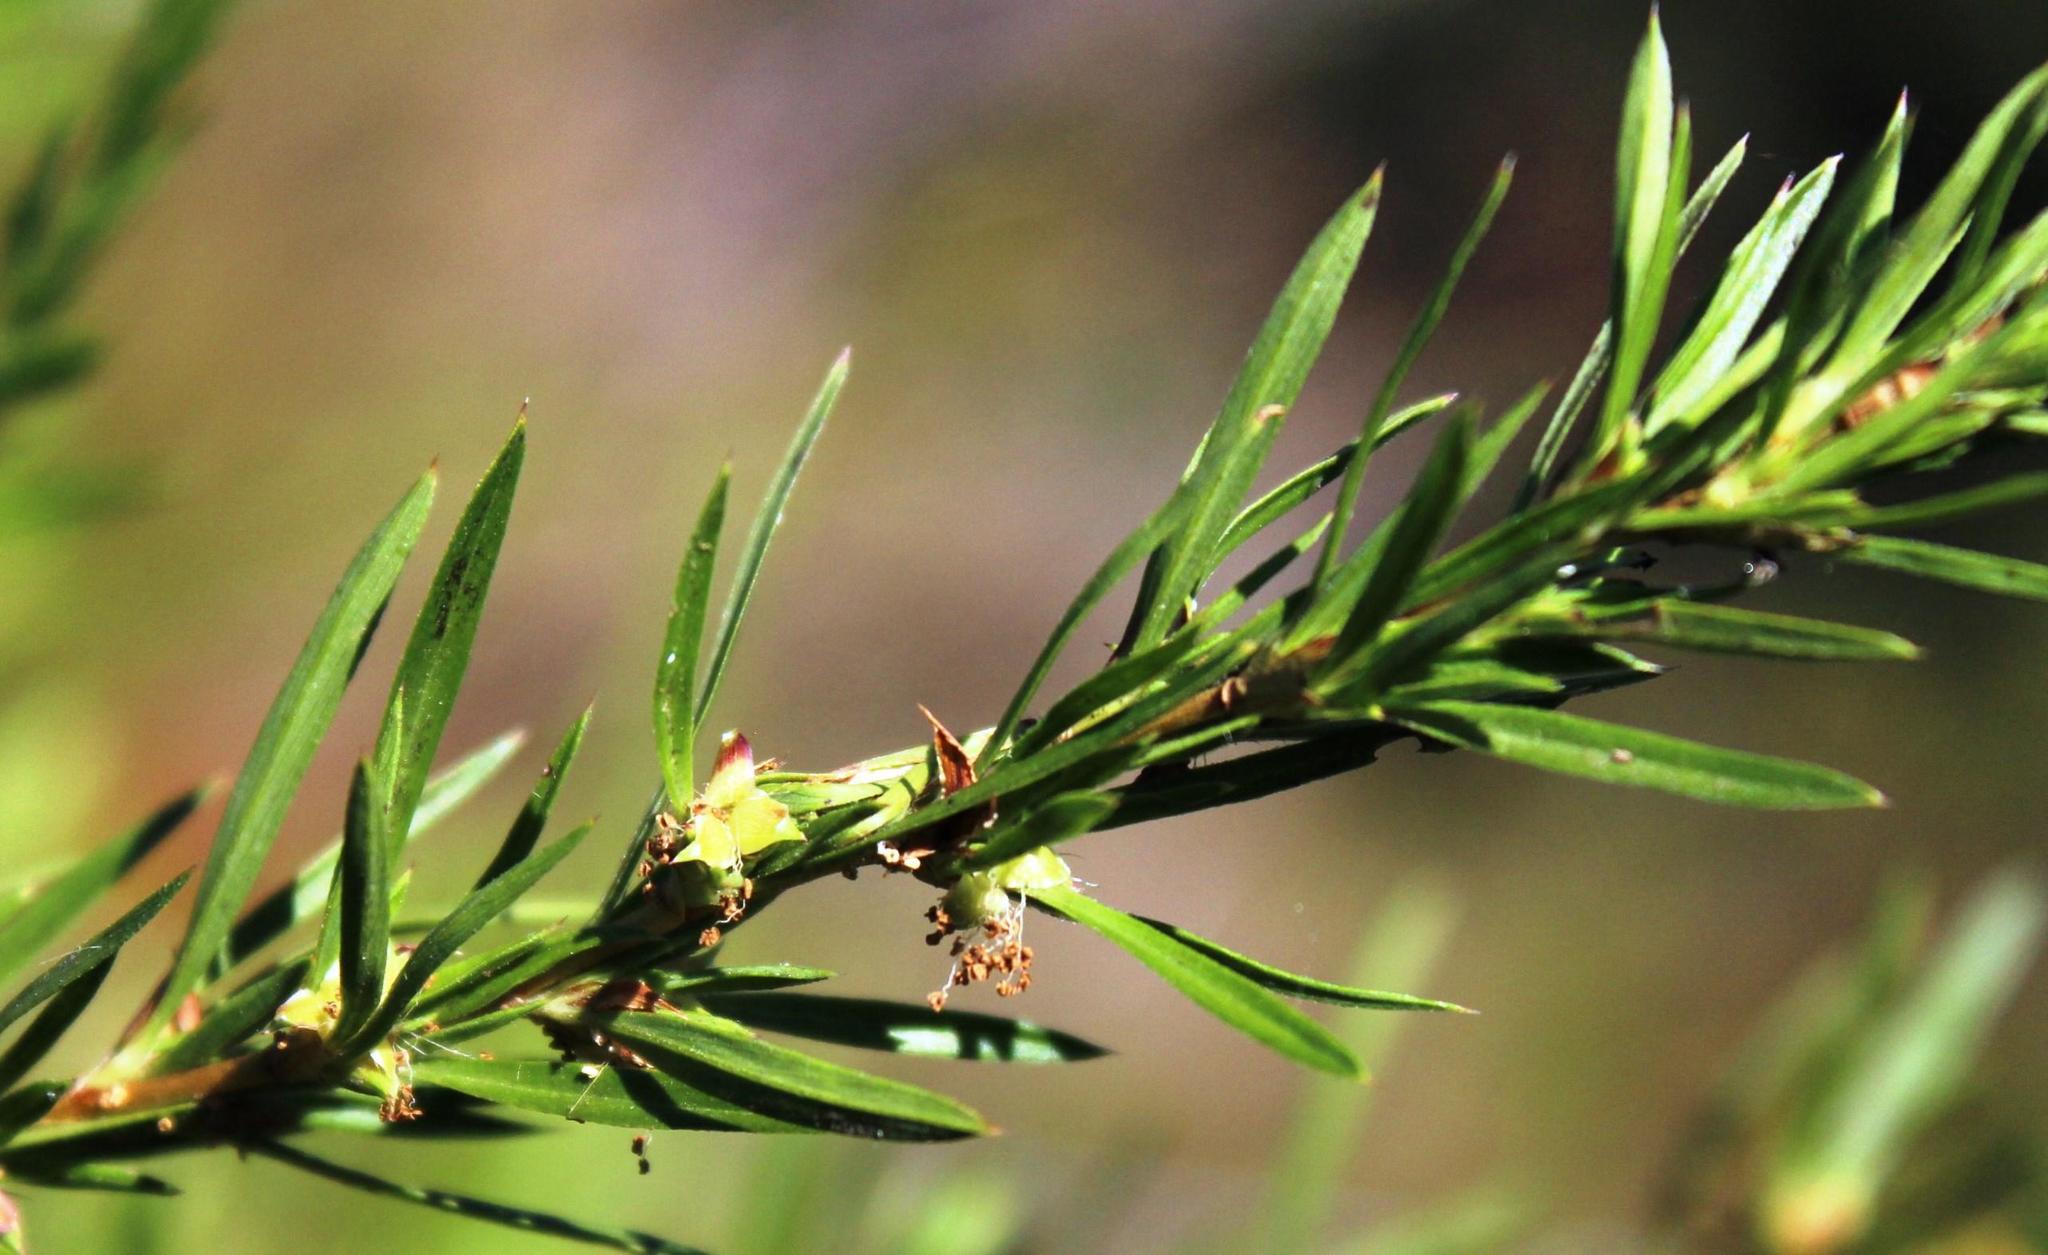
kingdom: Plantae
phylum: Tracheophyta
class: Magnoliopsida
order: Rosales
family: Rosaceae
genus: Cliffortia
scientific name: Cliffortia strobilifera
